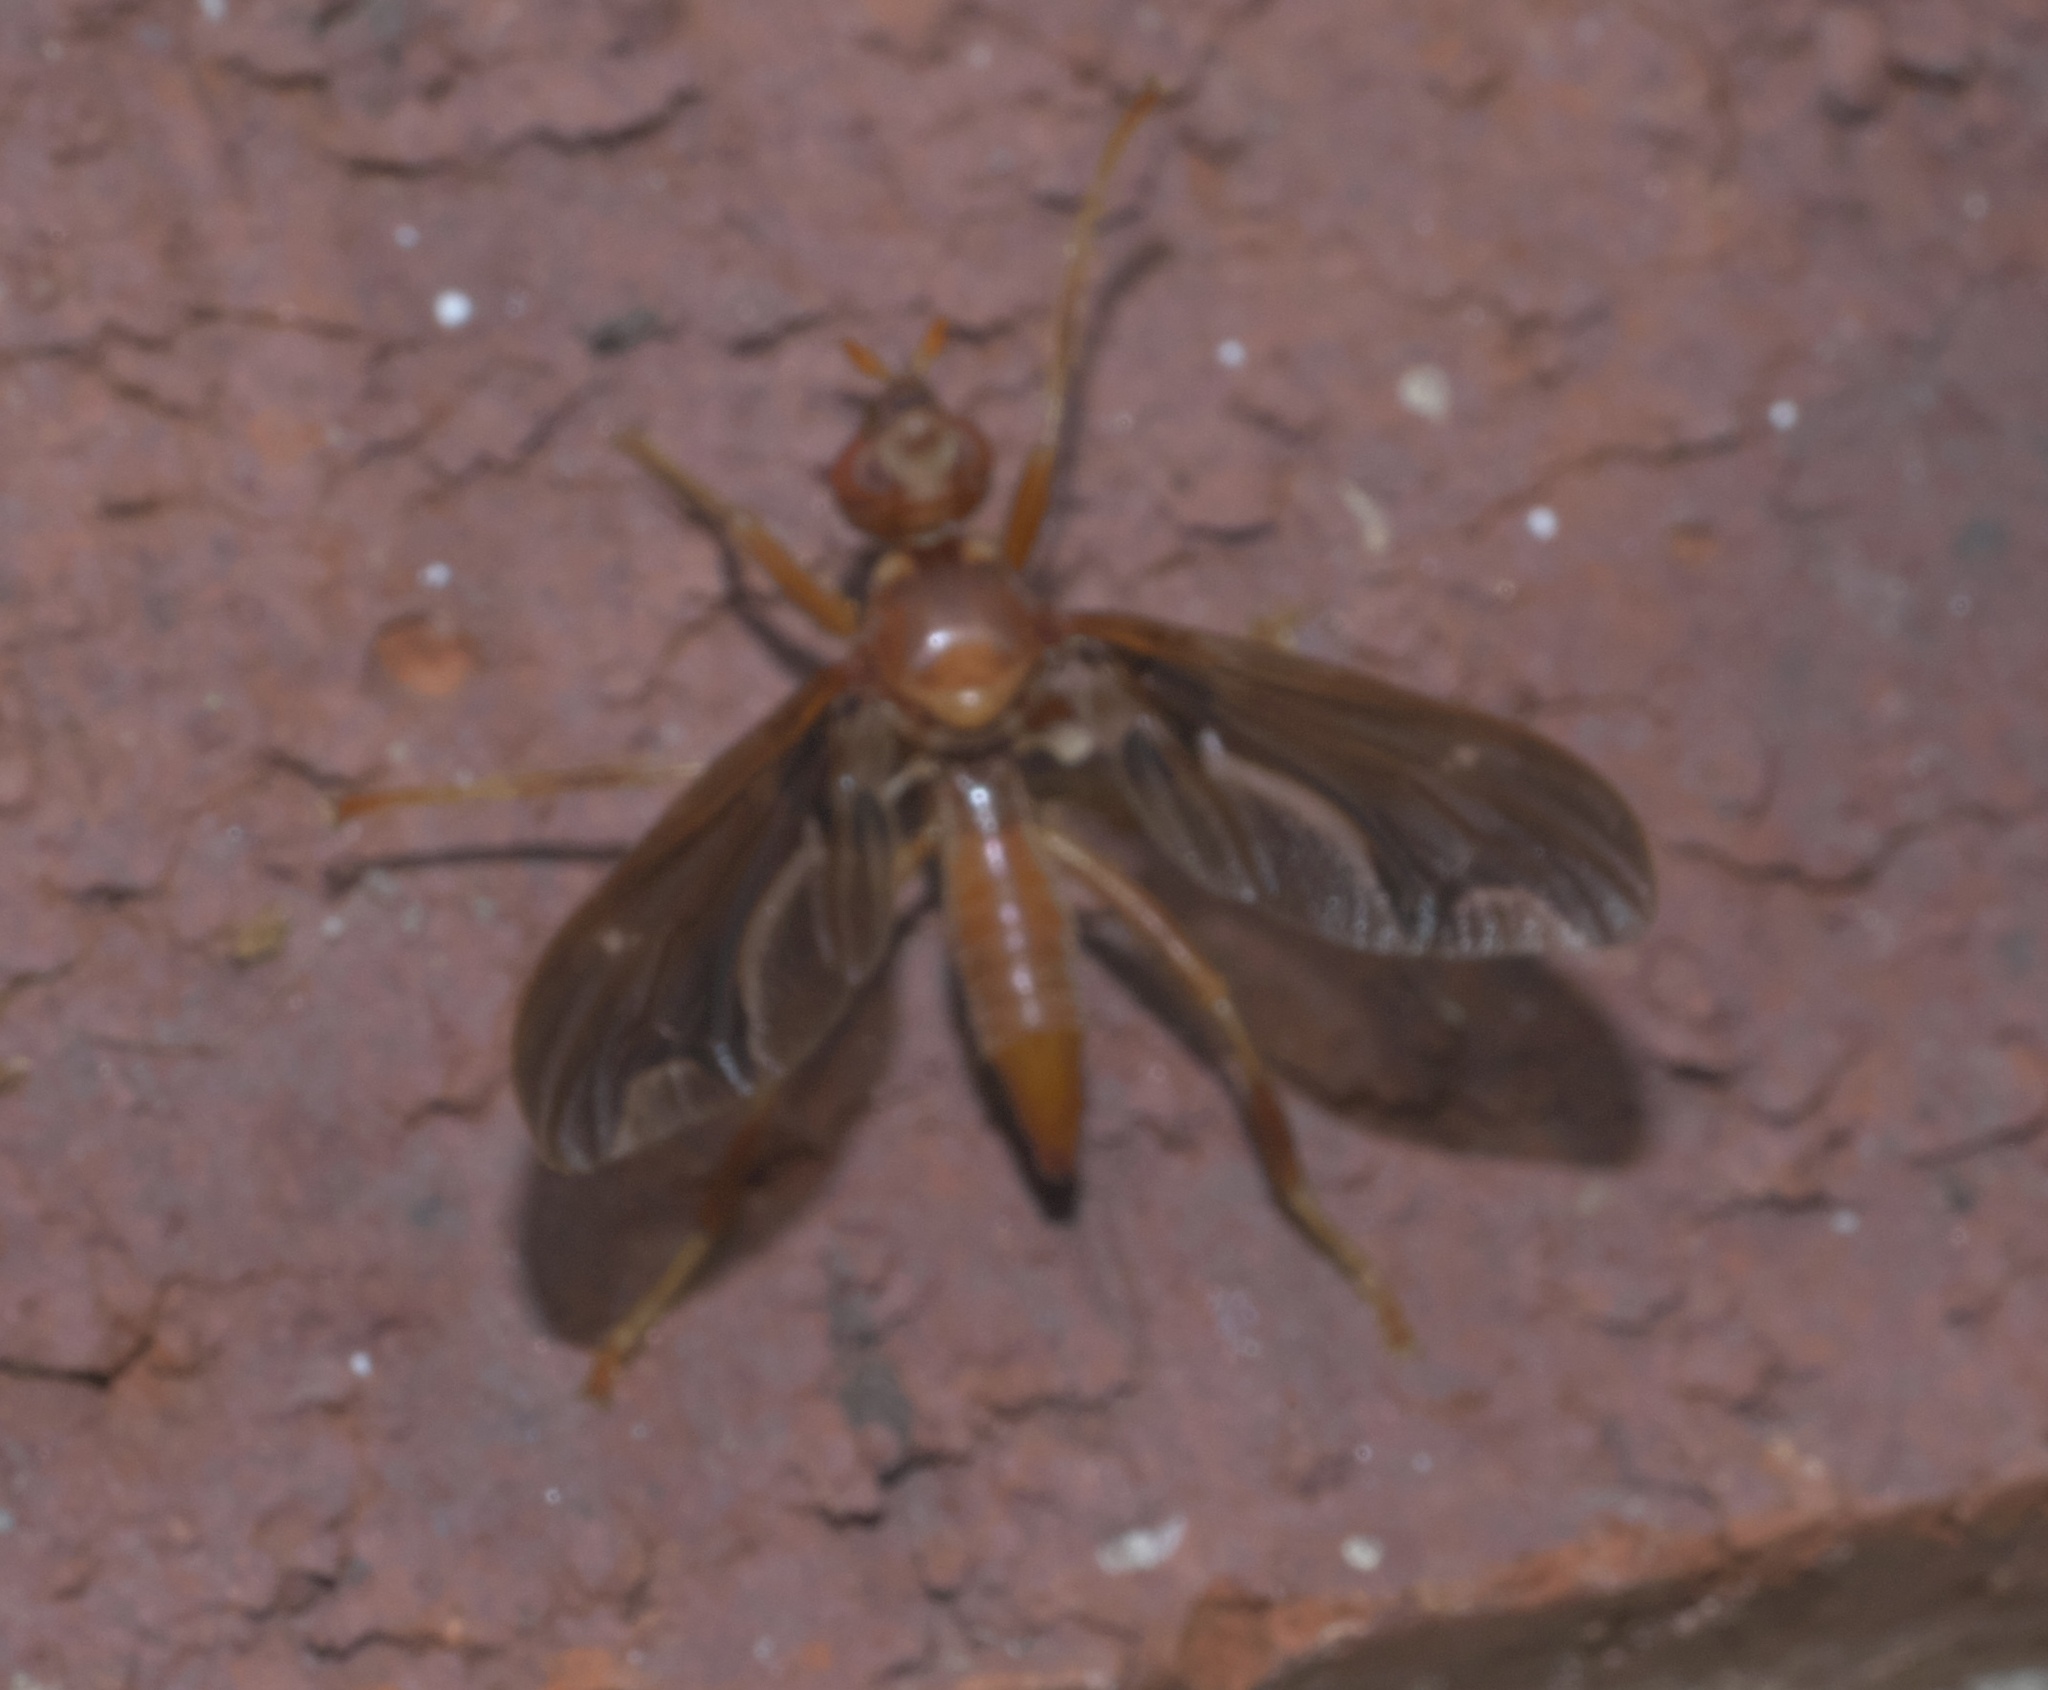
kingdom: Animalia
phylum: Arthropoda
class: Insecta
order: Diptera
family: Pyrgotidae
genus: Pyrgota
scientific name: Pyrgota undata
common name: Waved light fly
